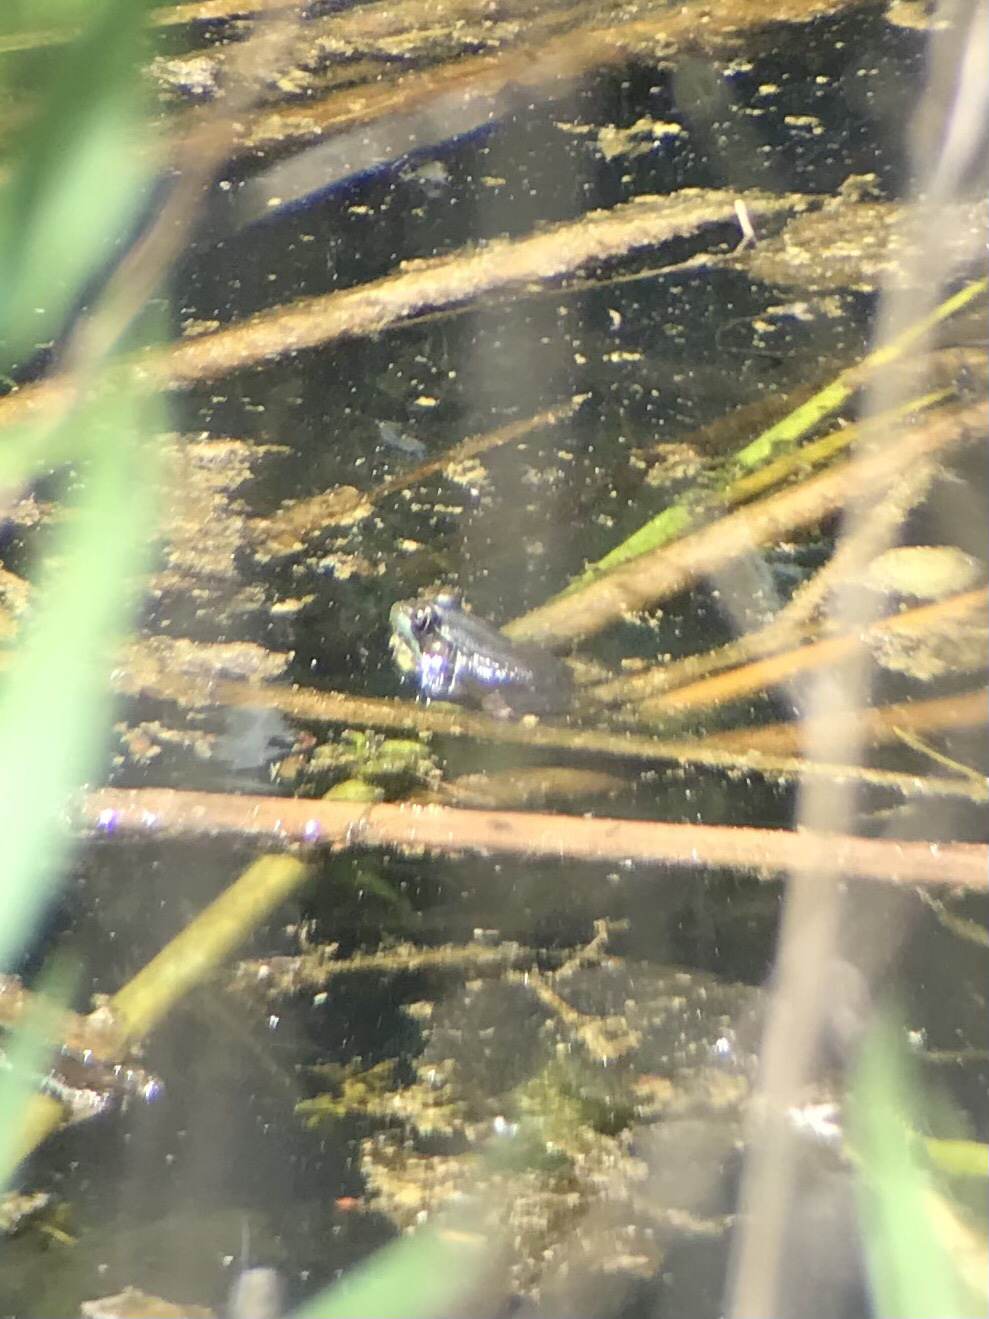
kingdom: Animalia
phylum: Chordata
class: Amphibia
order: Anura
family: Ranidae
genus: Lithobates
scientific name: Lithobates clamitans
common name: Green frog
